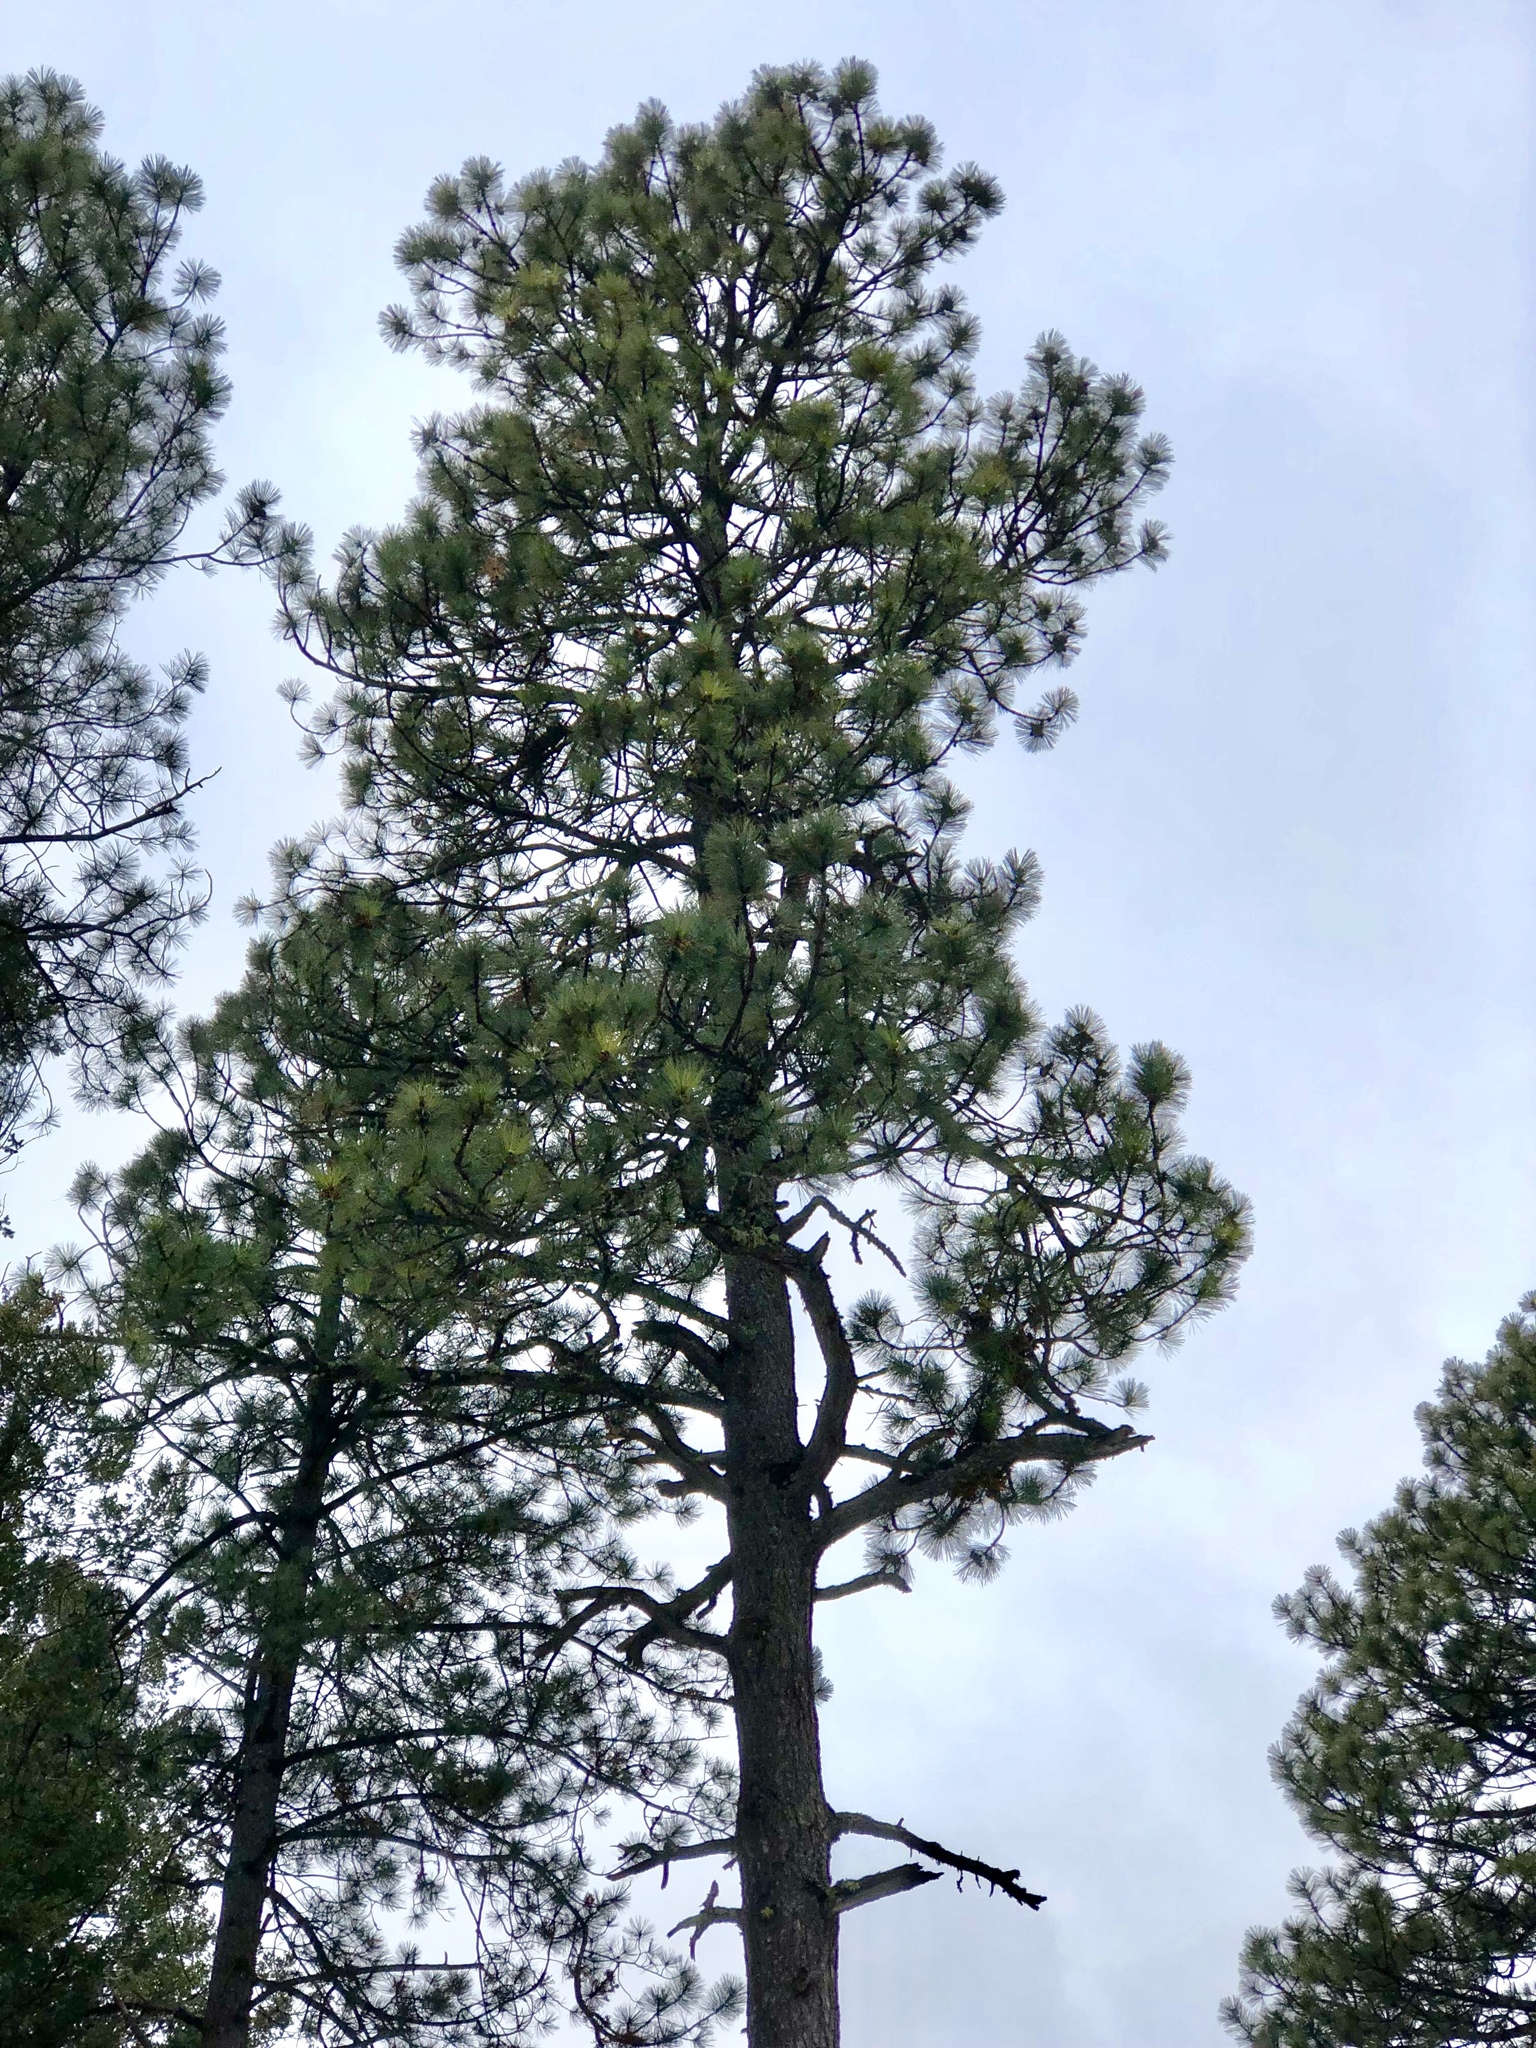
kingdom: Plantae
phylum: Tracheophyta
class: Pinopsida
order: Pinales
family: Pinaceae
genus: Pinus
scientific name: Pinus ponderosa
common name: Western yellow-pine
